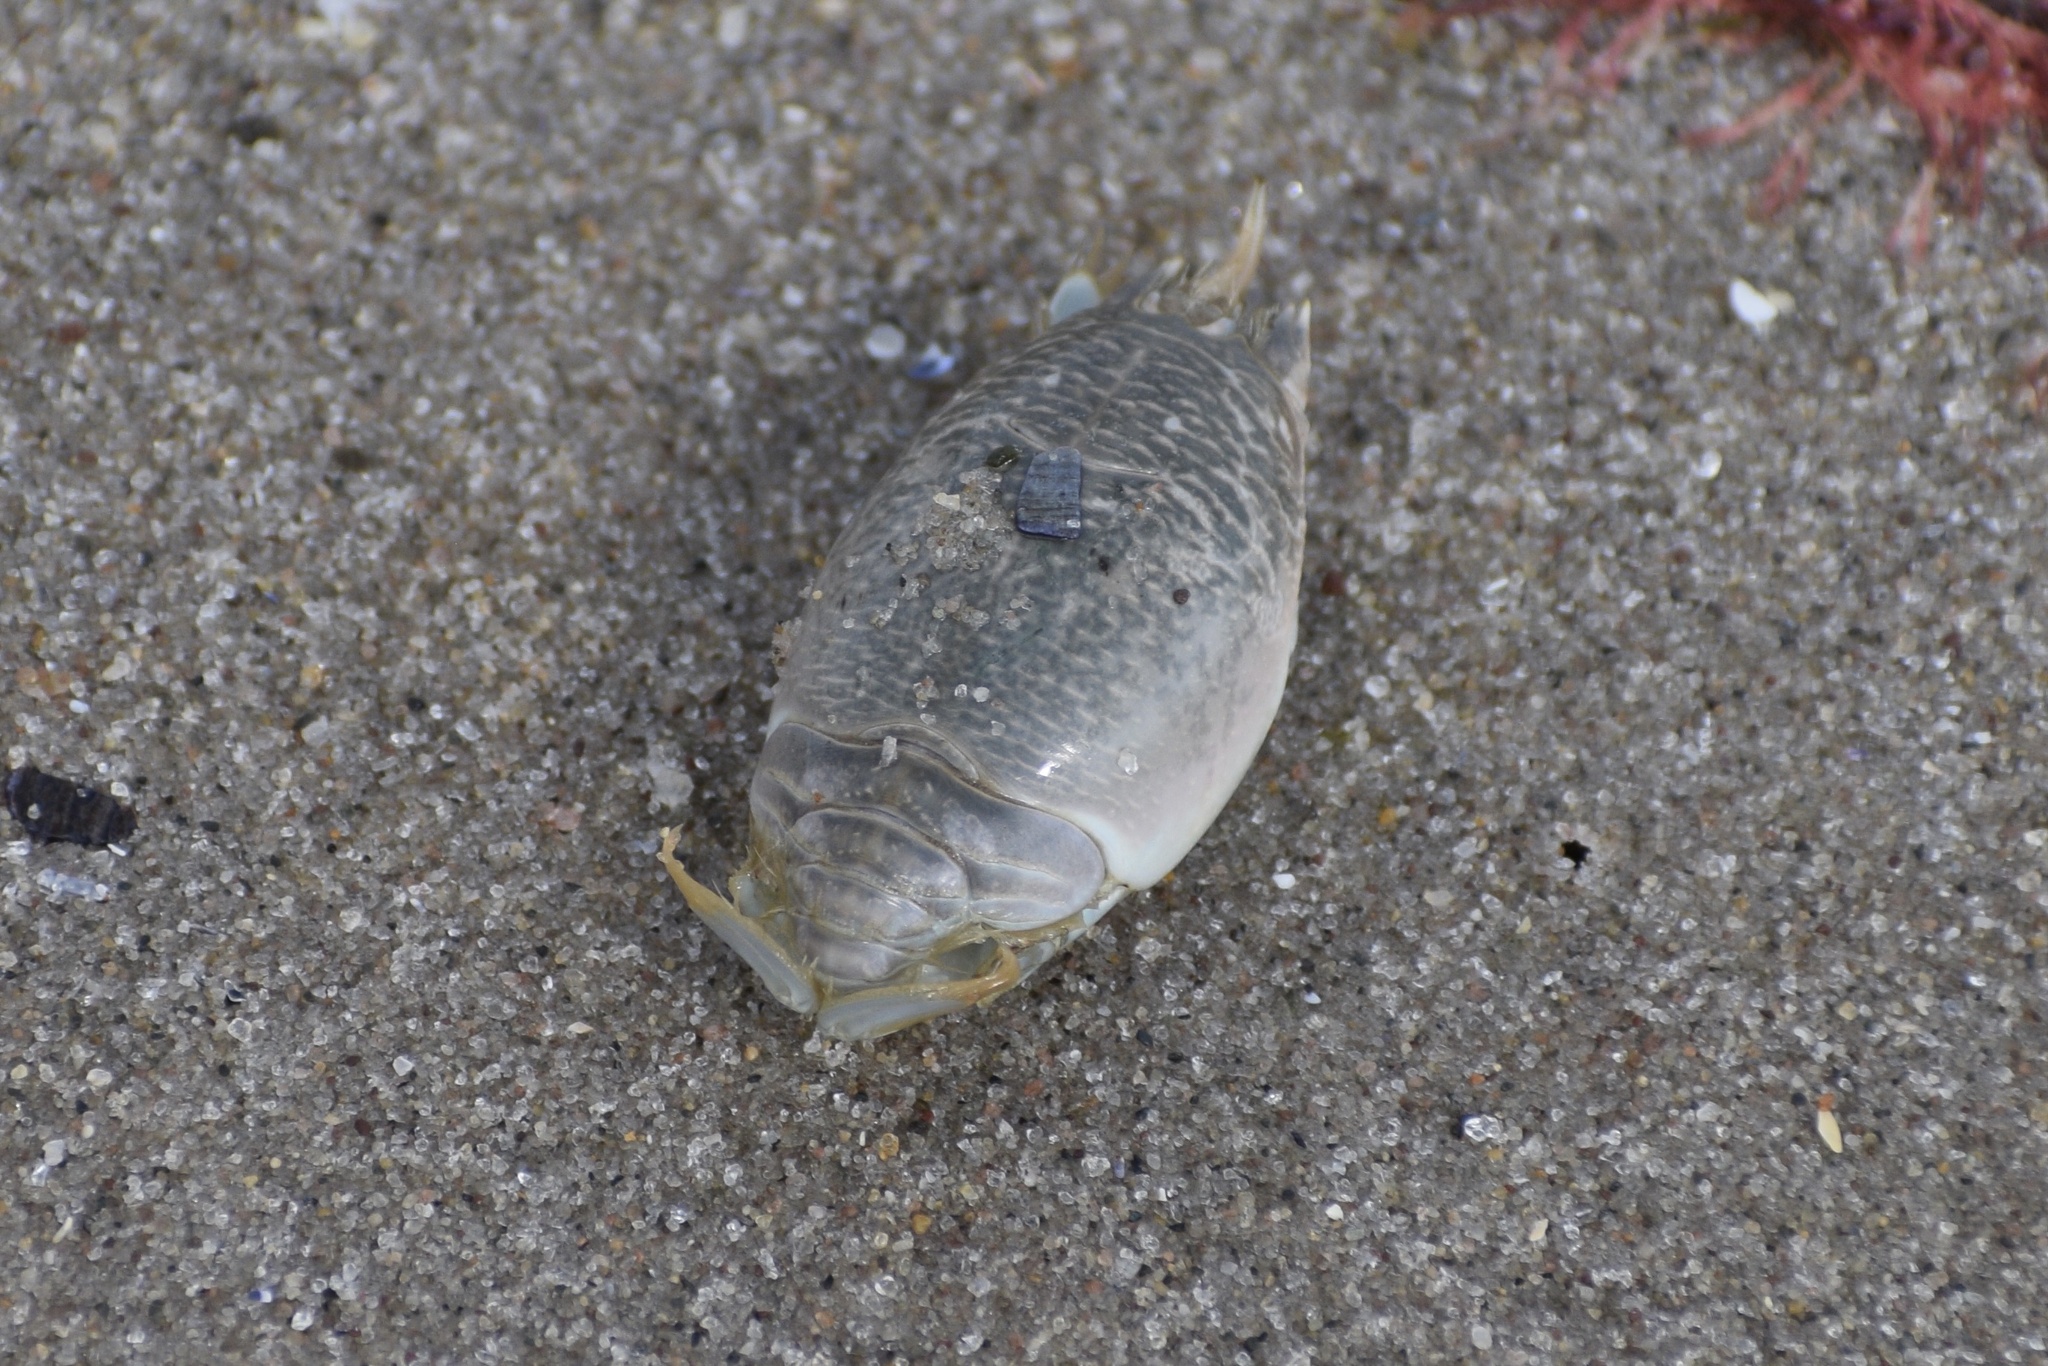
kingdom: Animalia
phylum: Arthropoda
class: Malacostraca
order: Decapoda
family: Hippidae
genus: Emerita
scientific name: Emerita talpoida
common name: Atlantic sand crab
